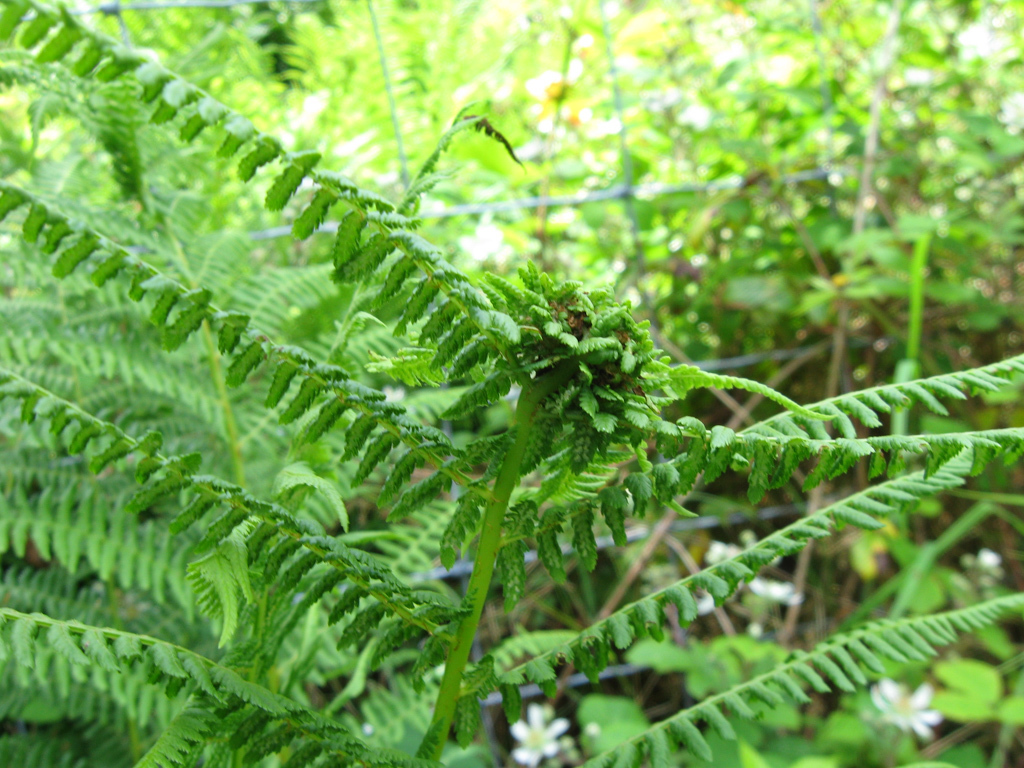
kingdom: Animalia
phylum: Arthropoda
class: Insecta
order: Diptera
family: Anthomyiidae
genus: Chirosia
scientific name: Chirosia betuleti
